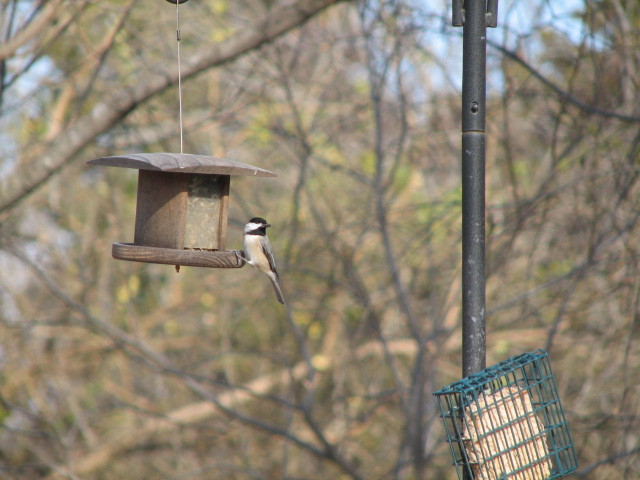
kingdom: Animalia
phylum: Chordata
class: Aves
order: Passeriformes
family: Paridae
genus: Poecile
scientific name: Poecile carolinensis
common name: Carolina chickadee
